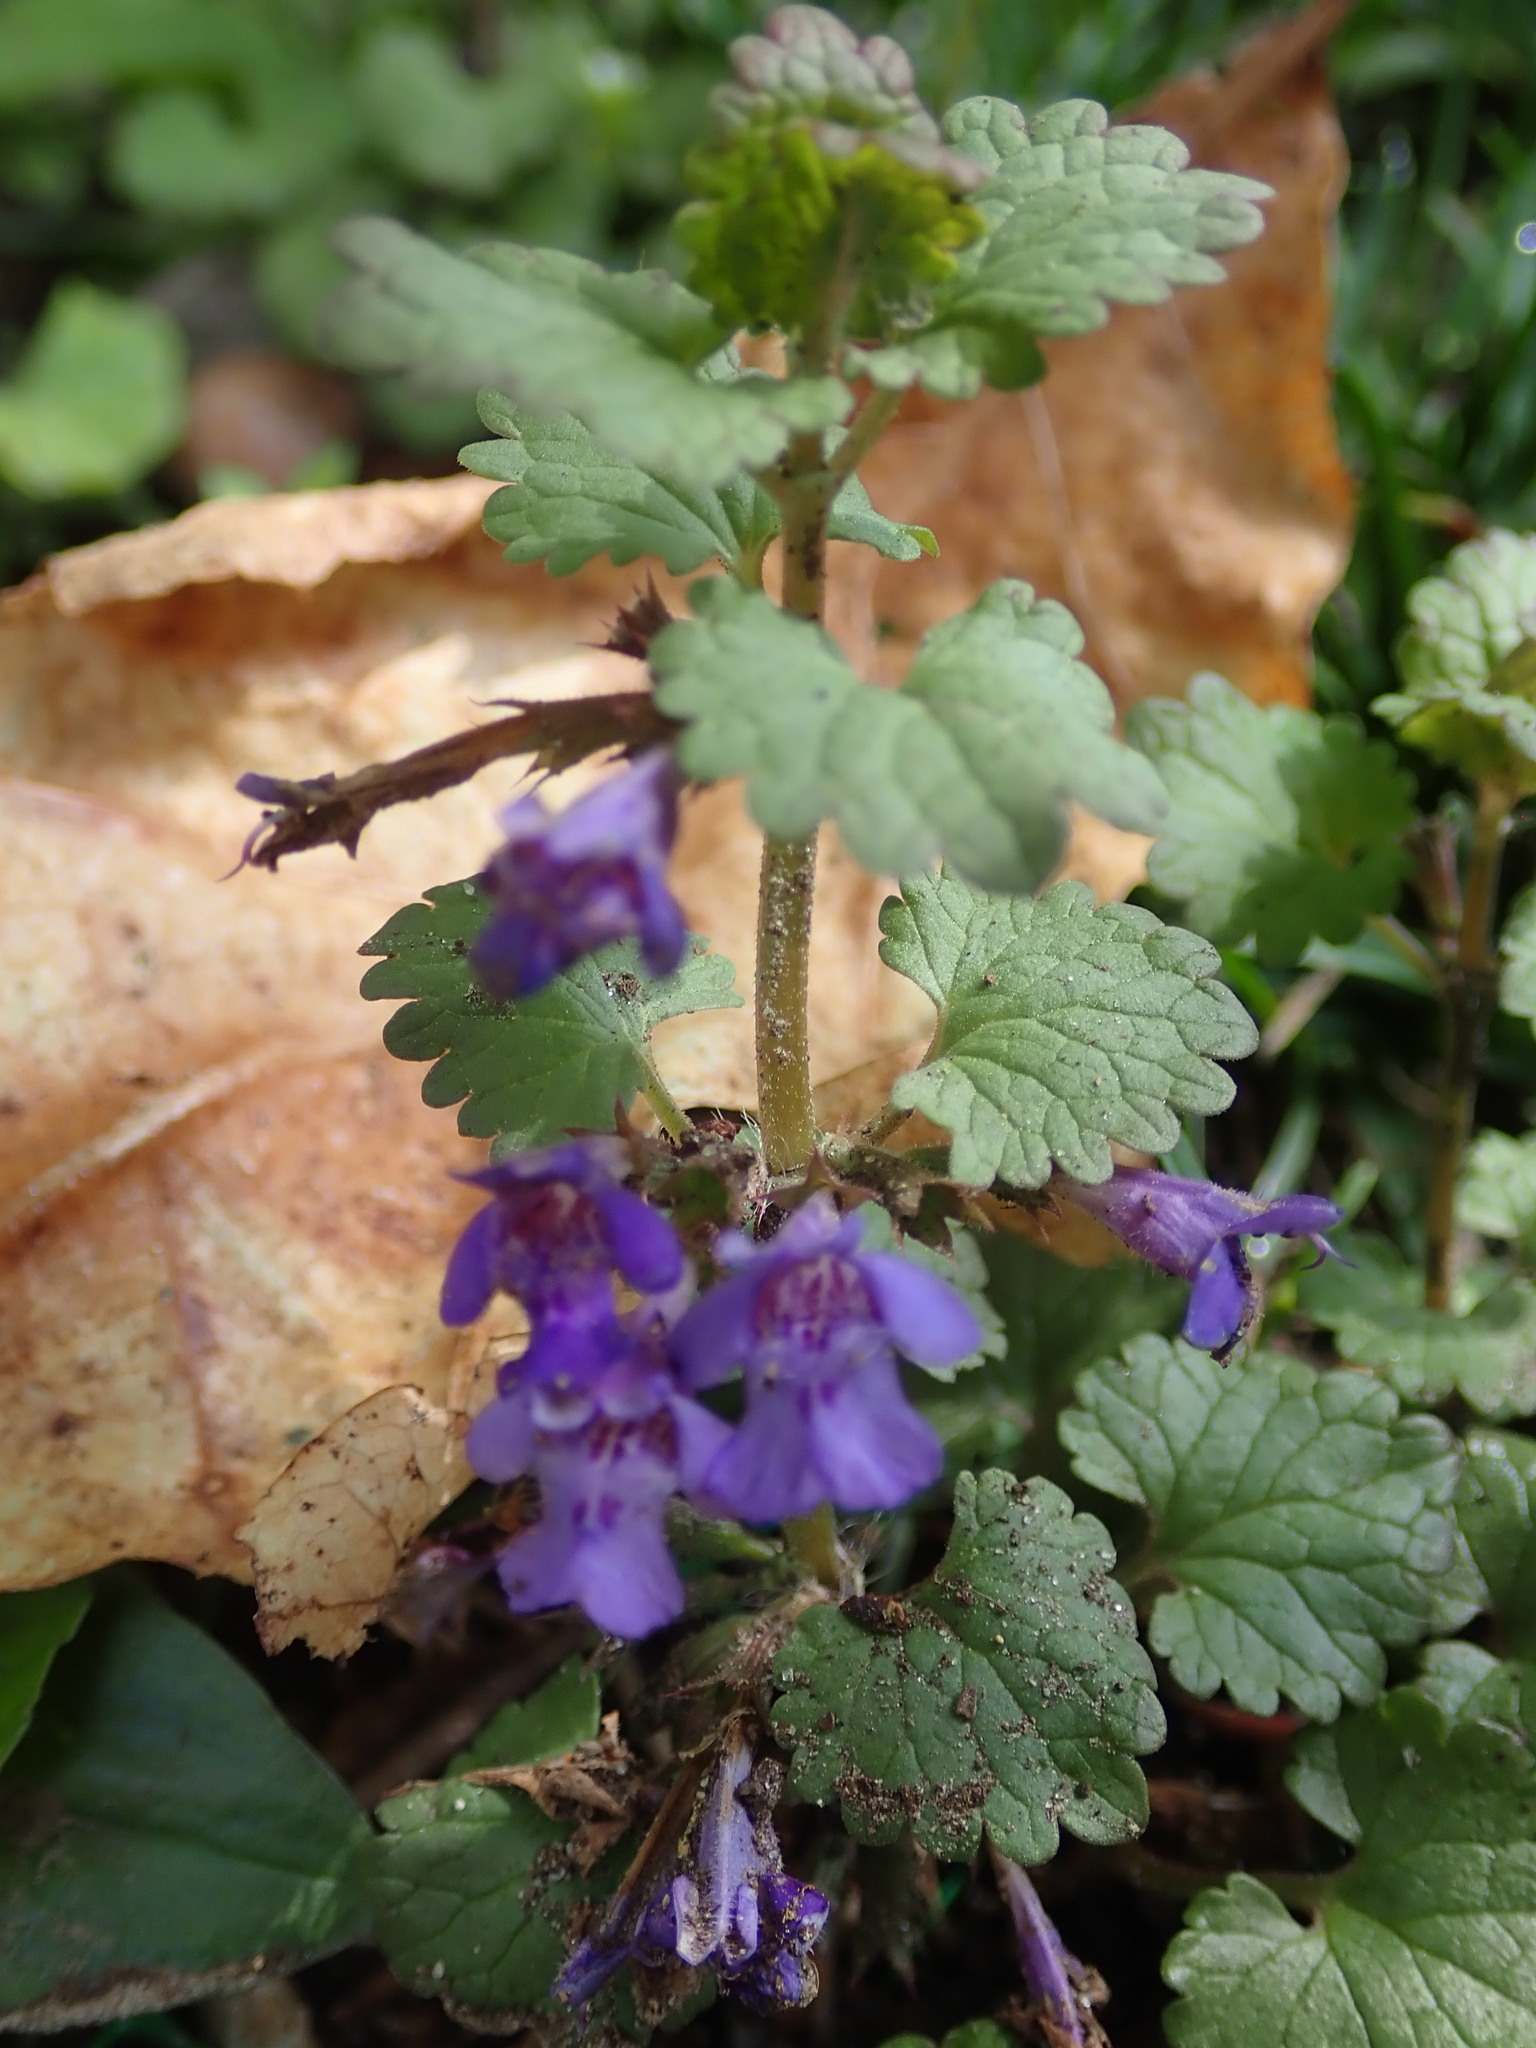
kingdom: Plantae
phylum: Tracheophyta
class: Magnoliopsida
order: Lamiales
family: Lamiaceae
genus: Glechoma
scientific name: Glechoma hederacea
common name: Ground ivy
